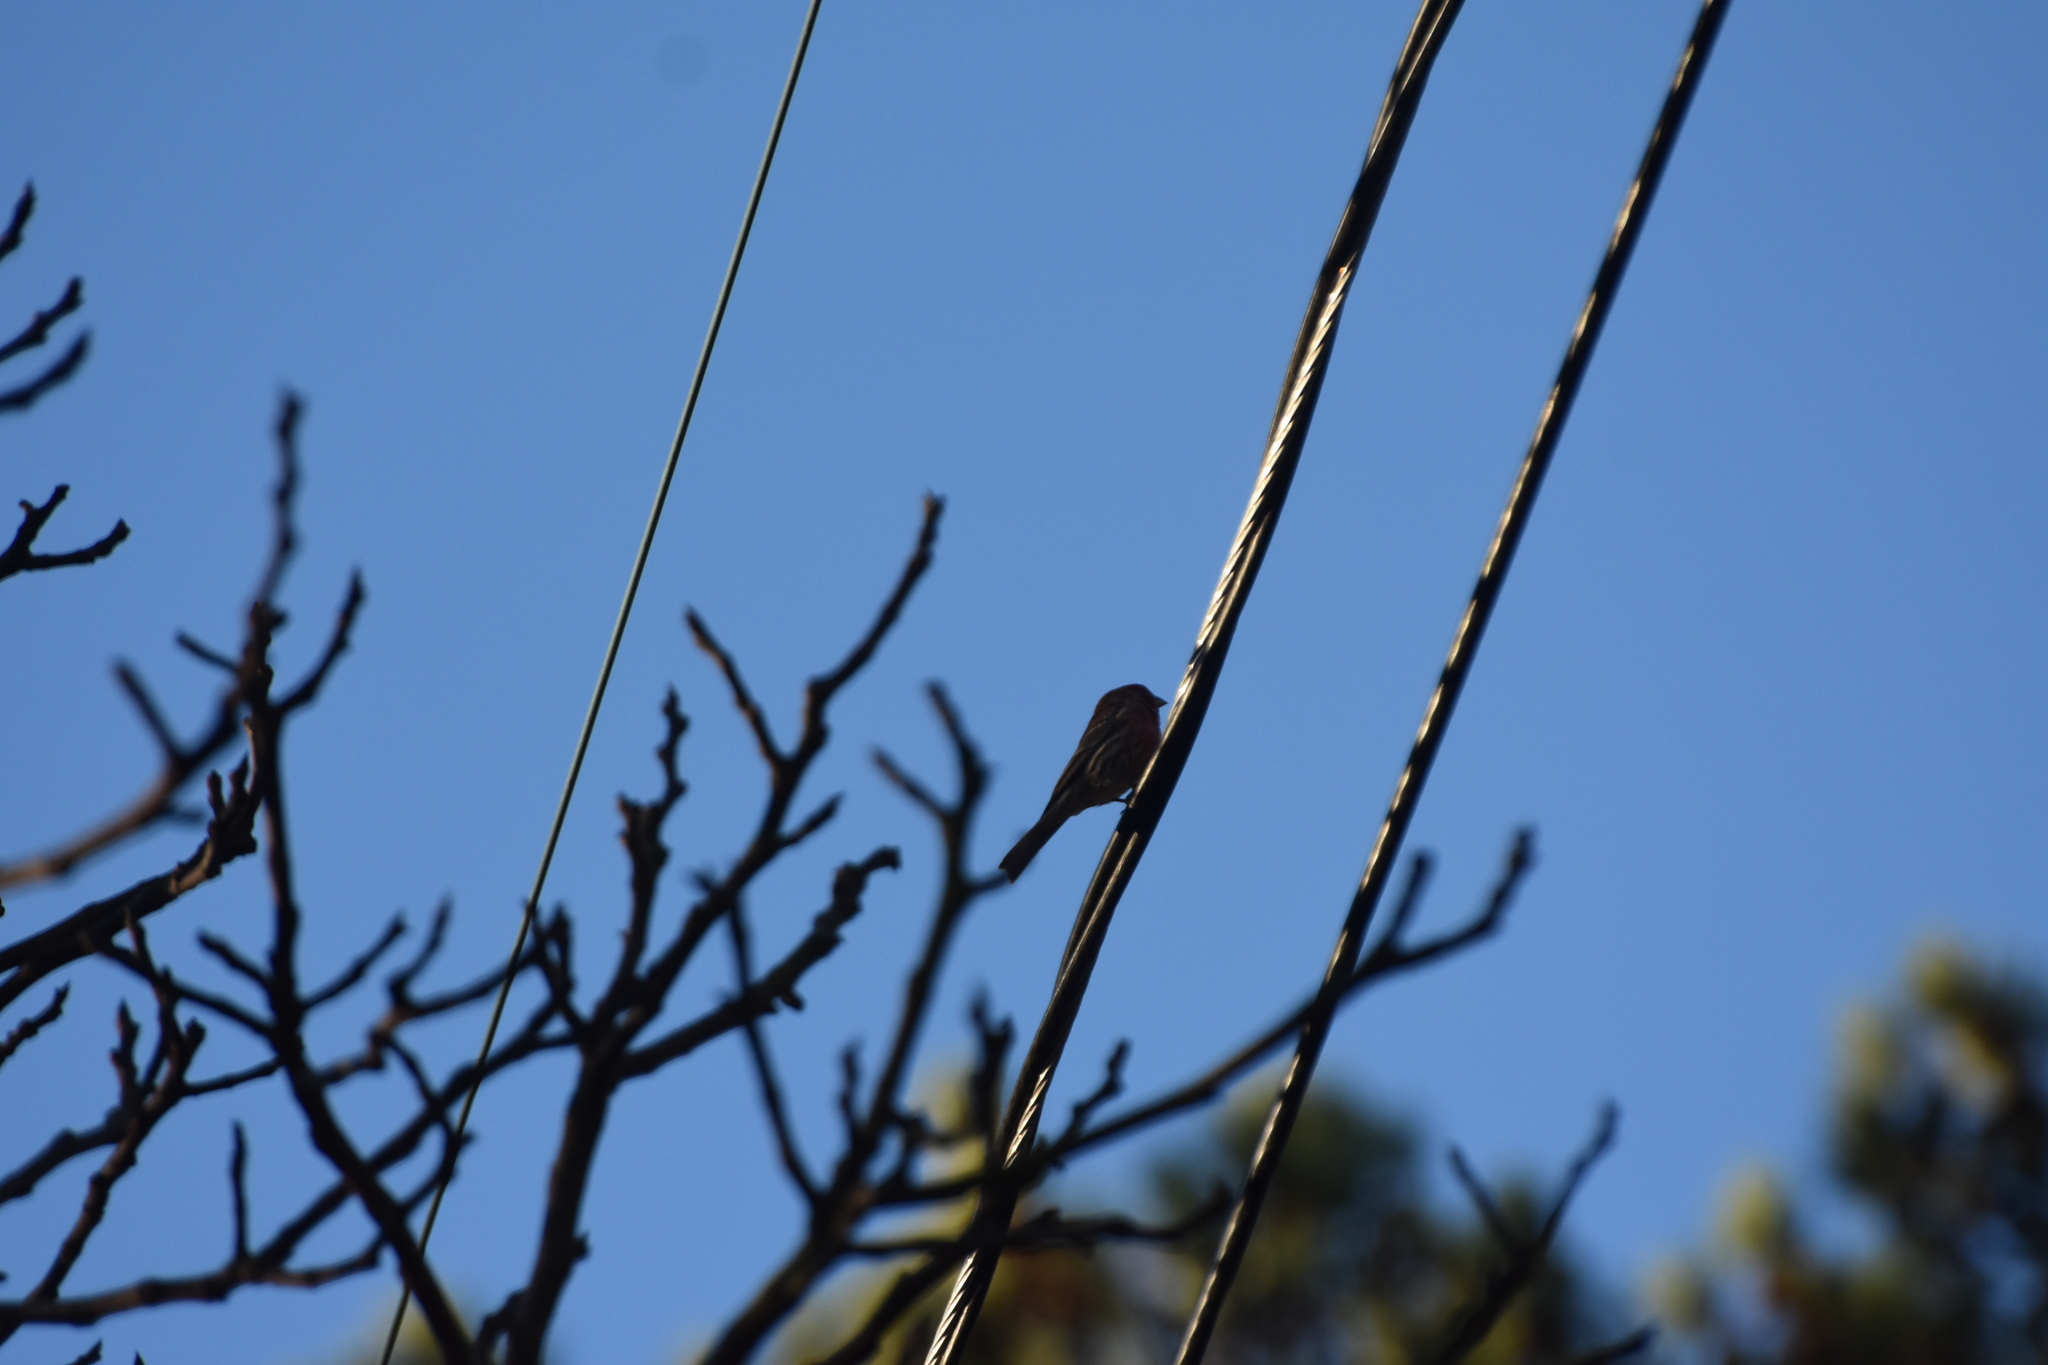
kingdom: Animalia
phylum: Chordata
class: Aves
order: Passeriformes
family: Fringillidae
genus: Haemorhous
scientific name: Haemorhous mexicanus
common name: House finch
